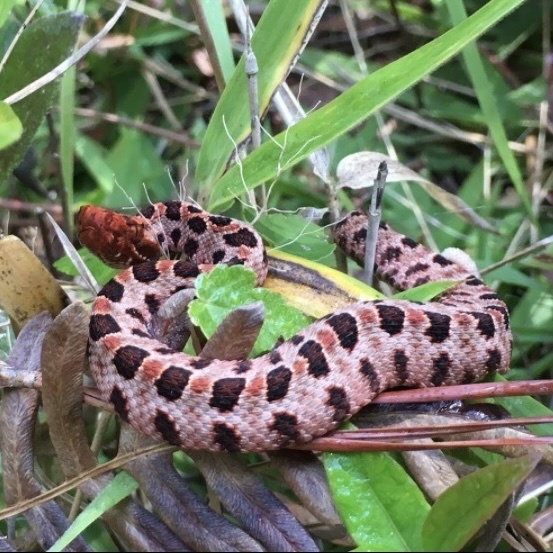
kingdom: Animalia
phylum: Chordata
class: Squamata
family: Viperidae
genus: Sistrurus
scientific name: Sistrurus miliarius
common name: Pygmy rattlesnake
